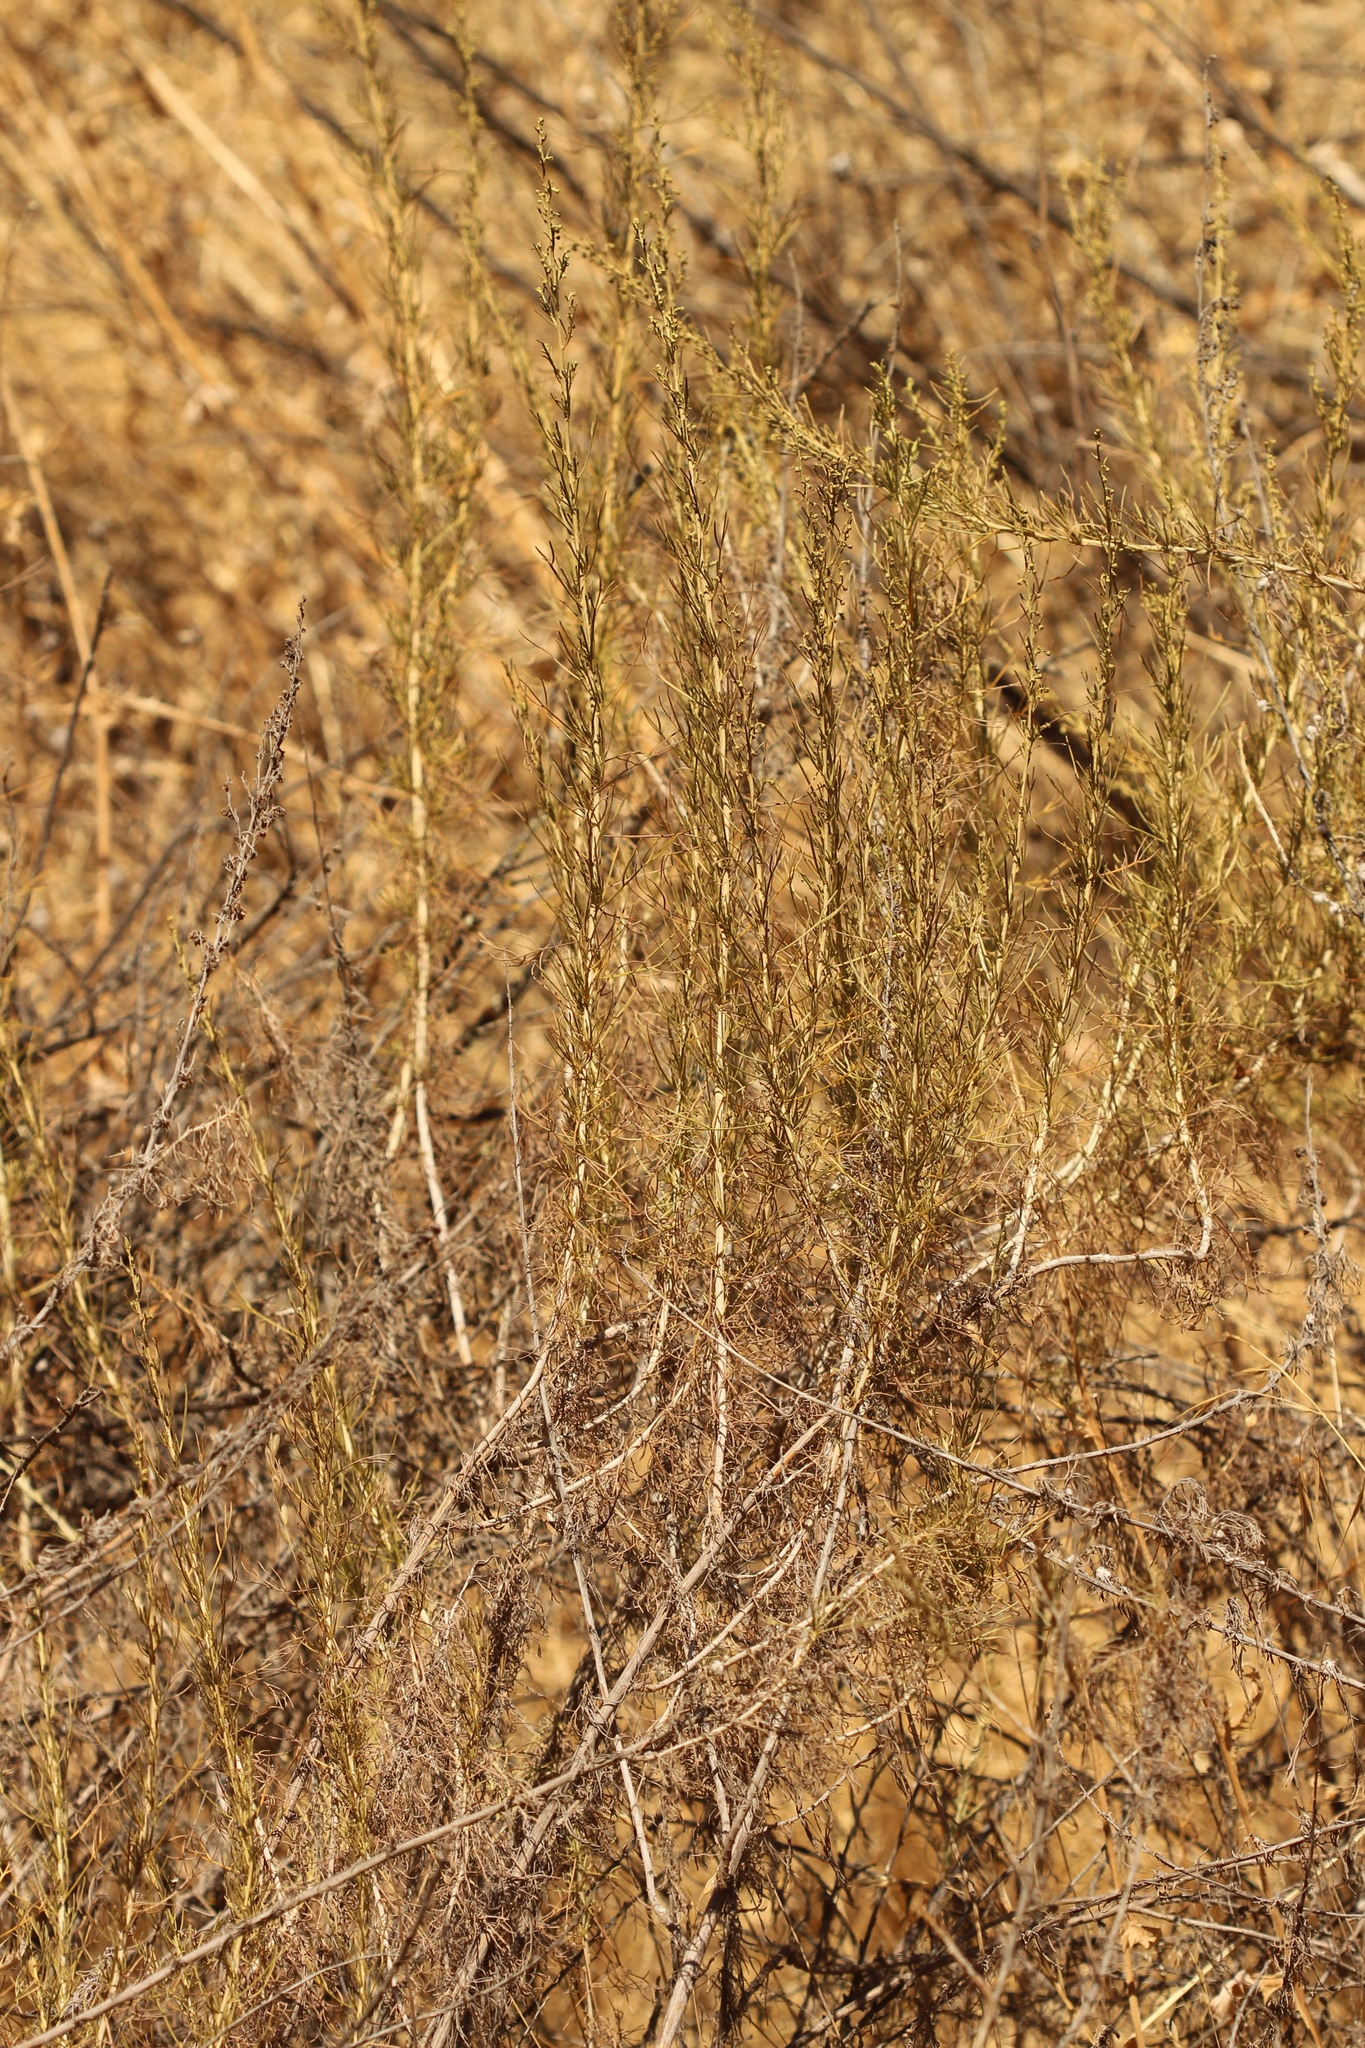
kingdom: Plantae
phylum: Tracheophyta
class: Magnoliopsida
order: Asterales
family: Asteraceae
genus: Artemisia
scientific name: Artemisia californica
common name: California sagebrush
